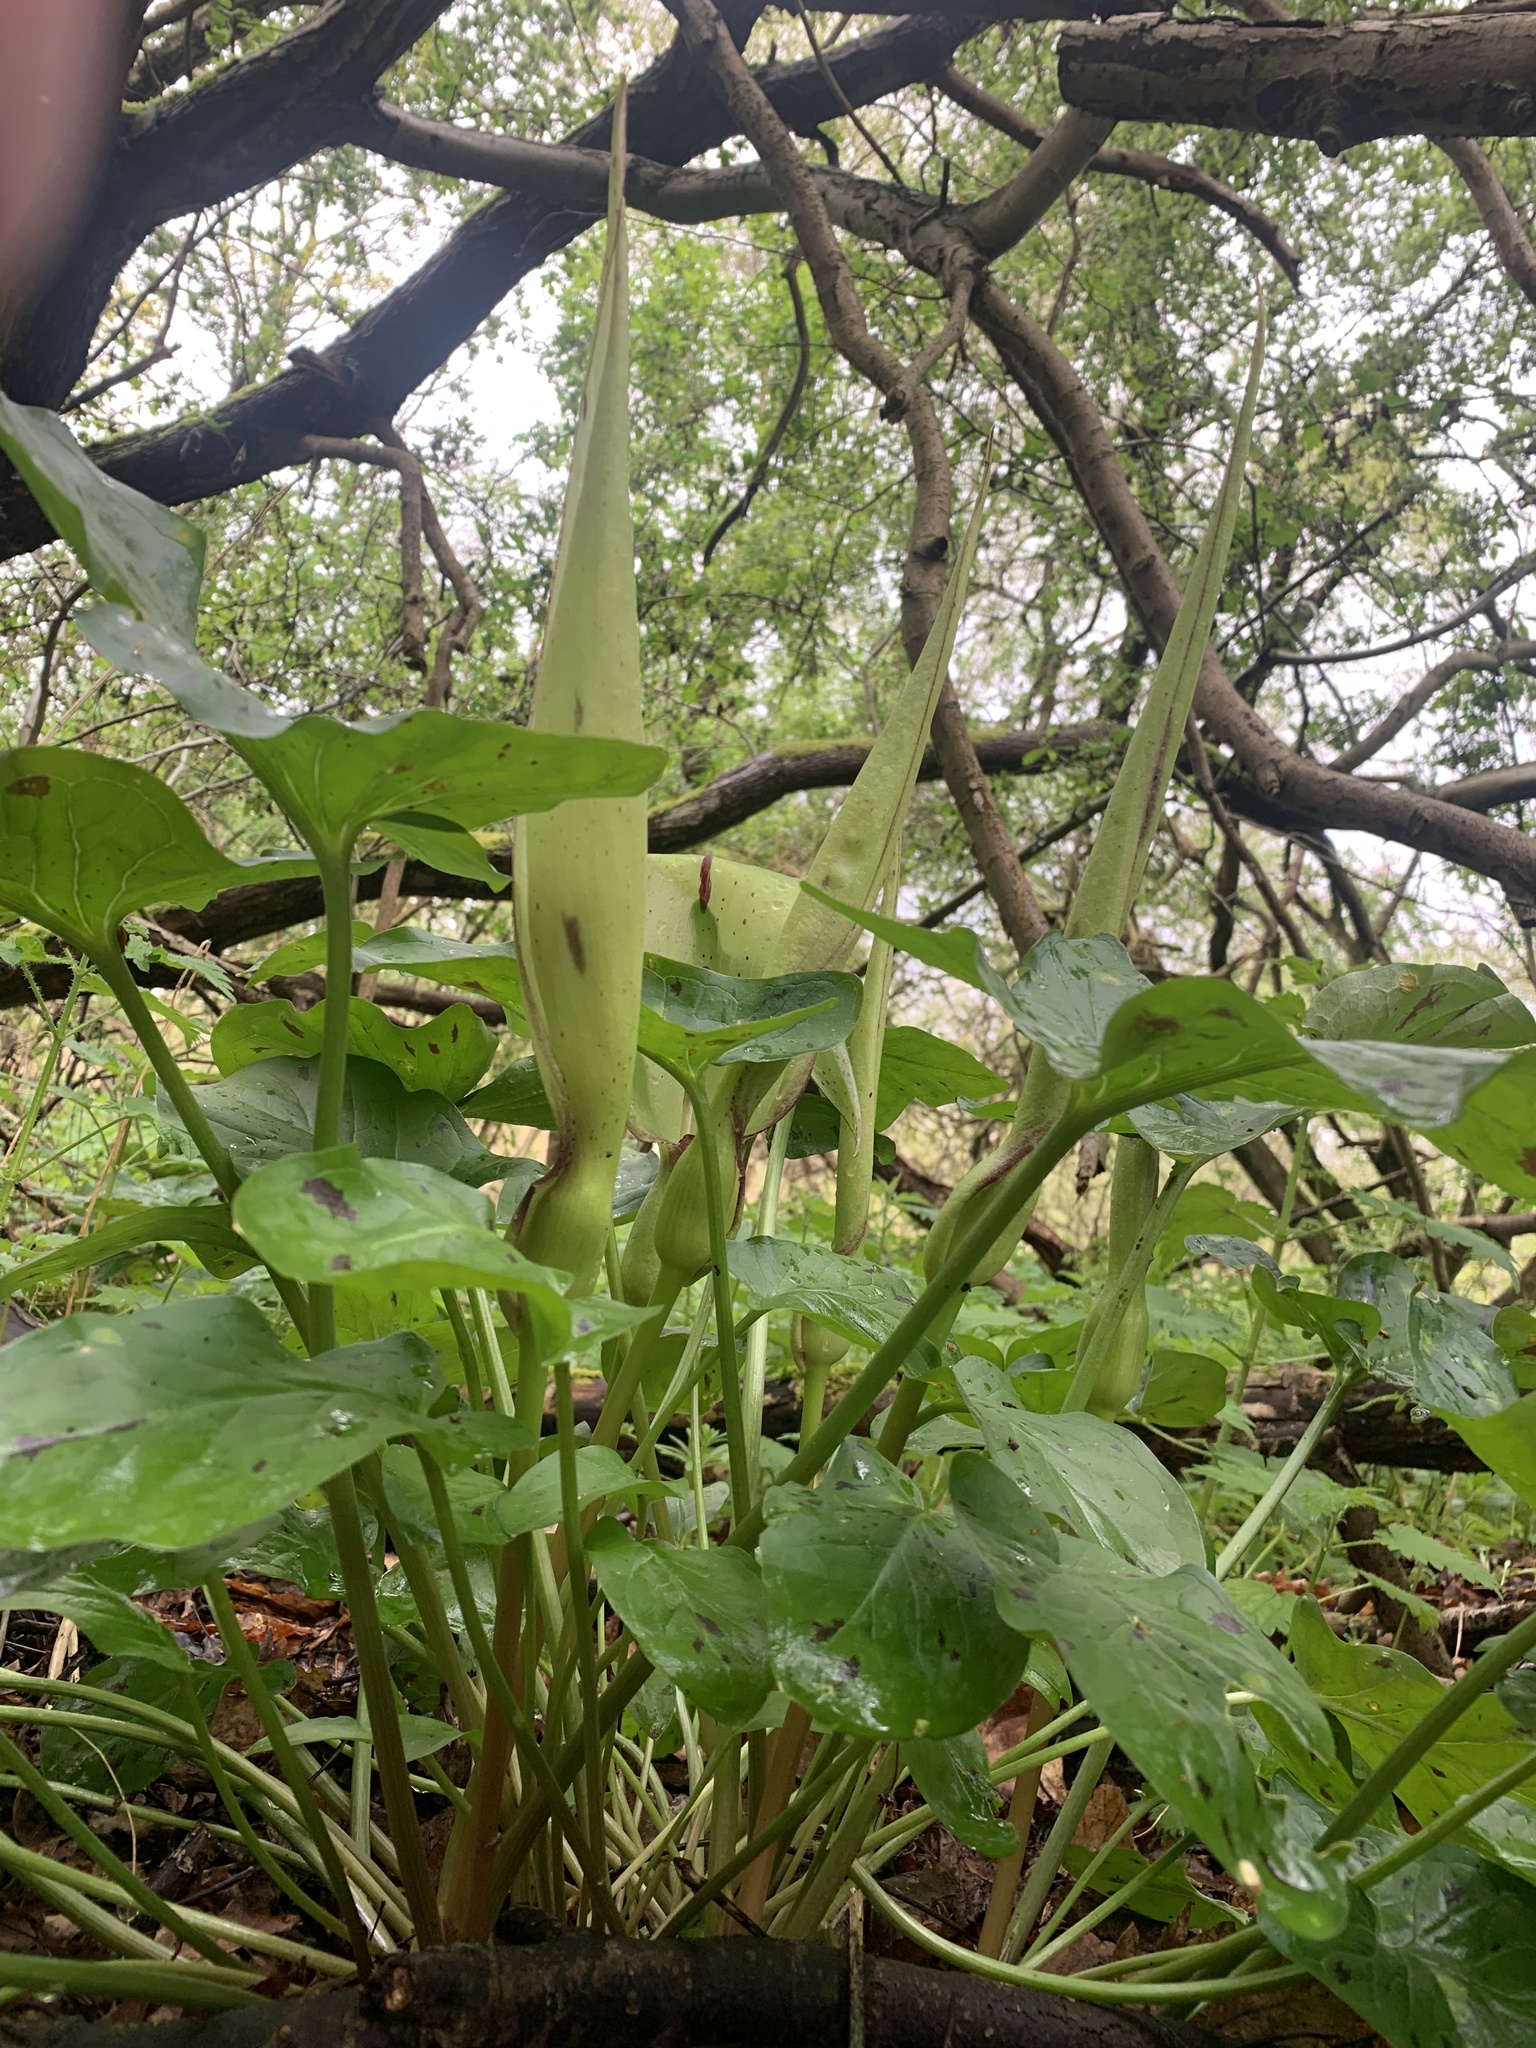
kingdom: Plantae
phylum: Tracheophyta
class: Liliopsida
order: Alismatales
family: Araceae
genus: Arum
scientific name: Arum maculatum
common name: Lords-and-ladies
